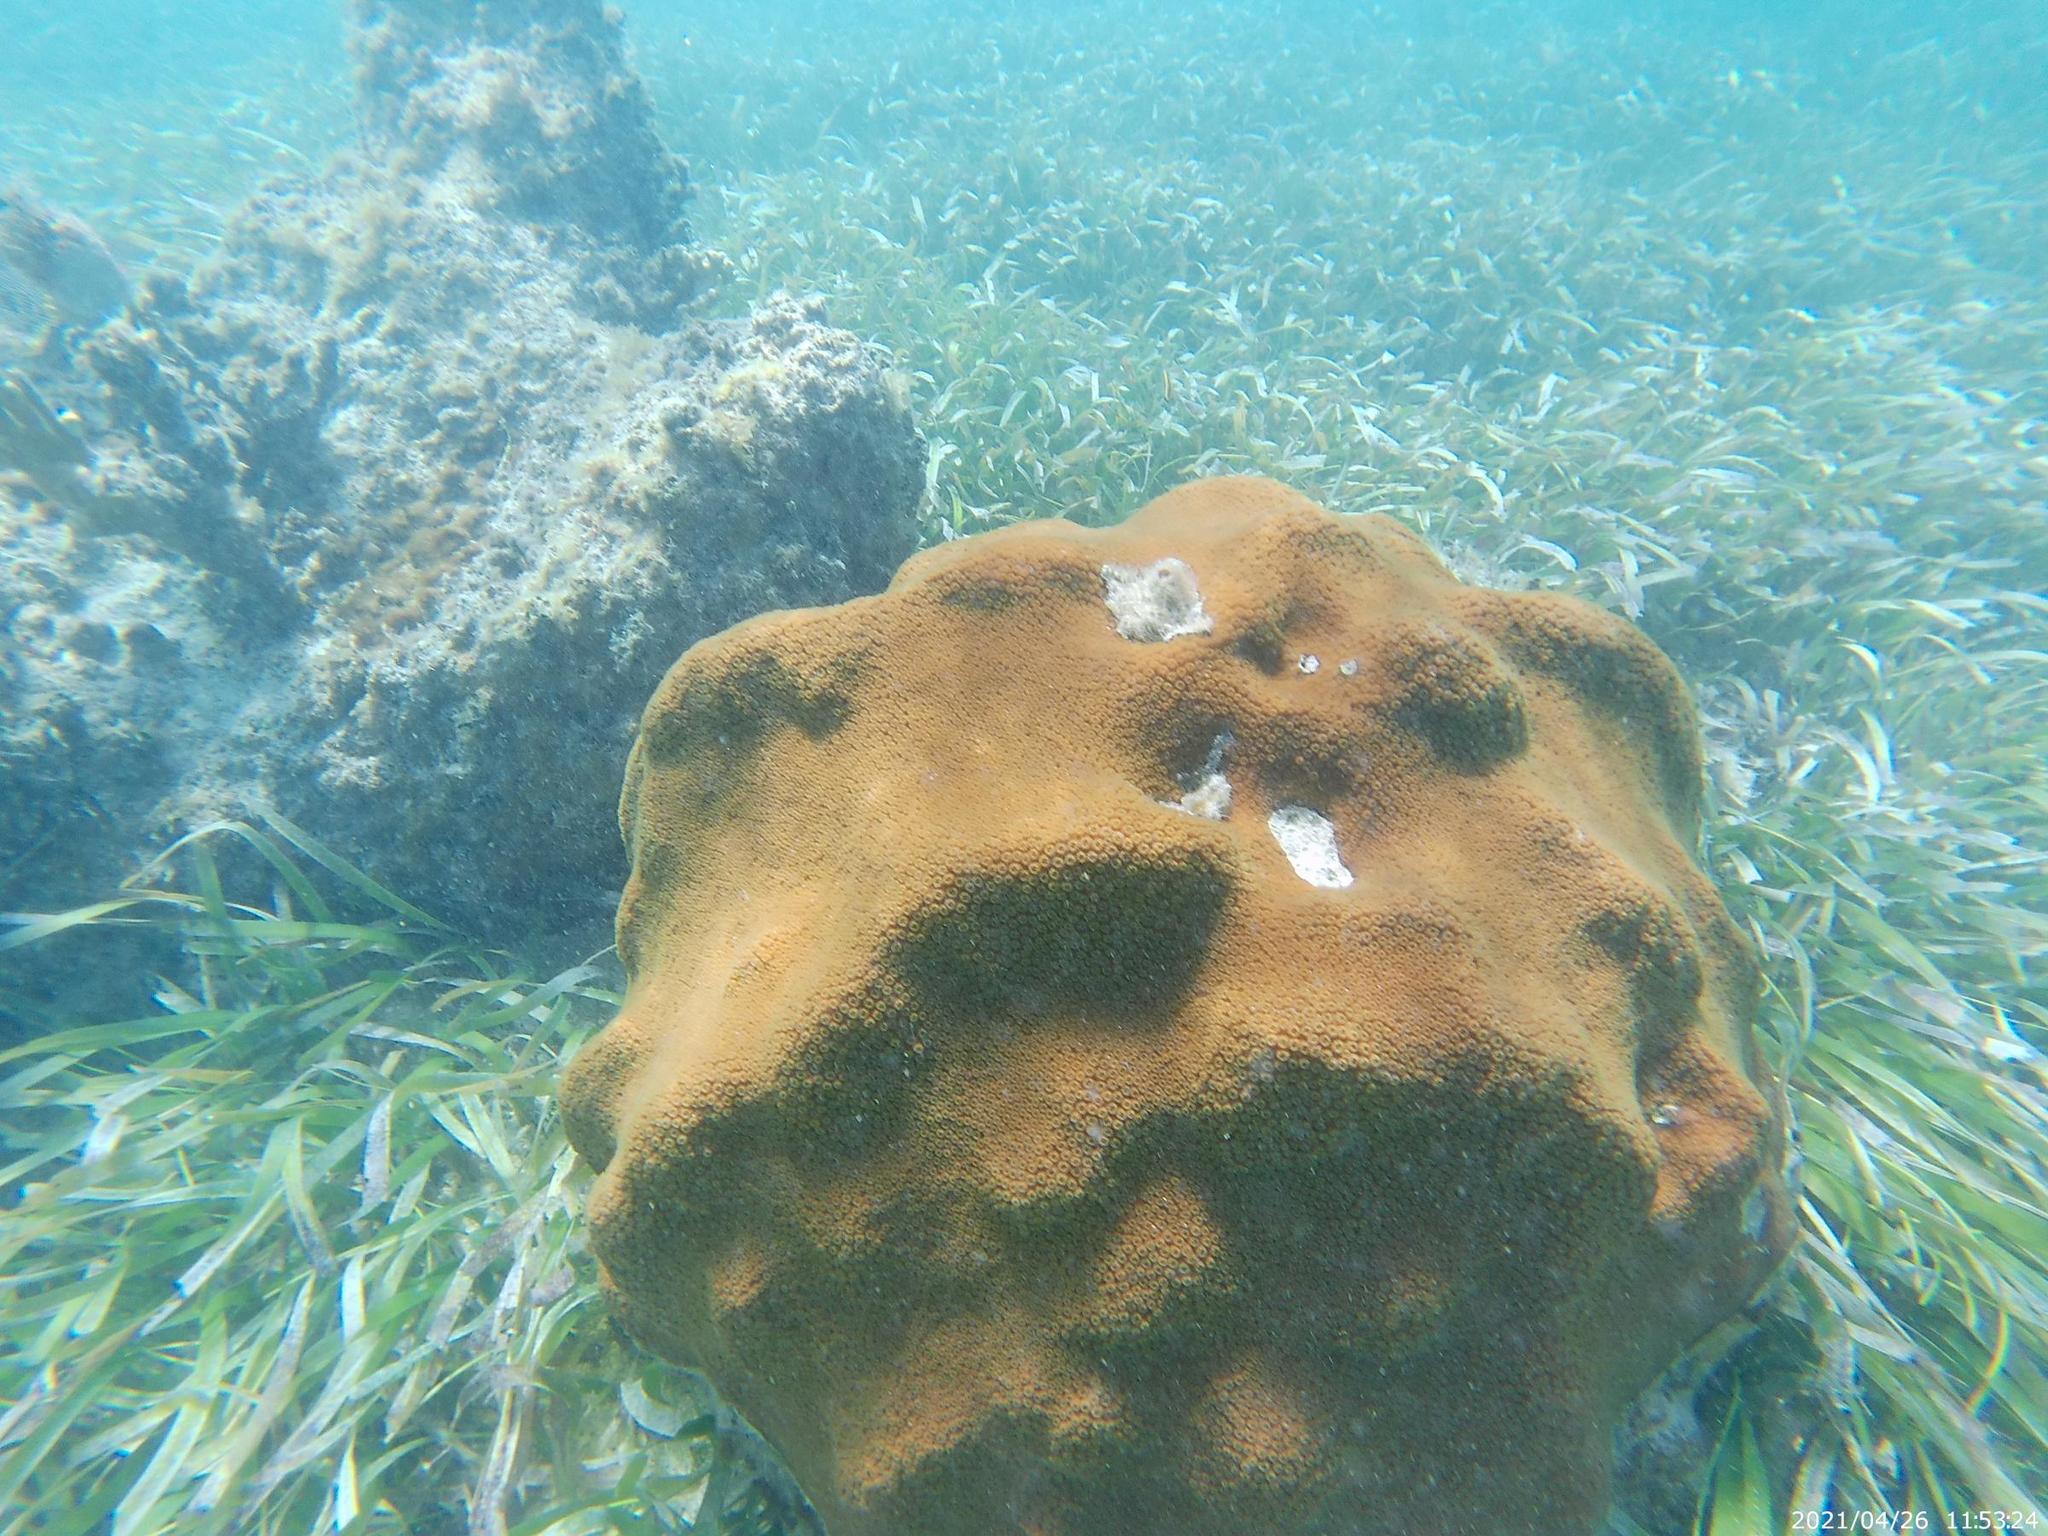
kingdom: Animalia
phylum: Cnidaria
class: Anthozoa
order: Scleractinia
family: Merulinidae
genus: Orbicella
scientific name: Orbicella faveolata
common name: Mountainous star coral
